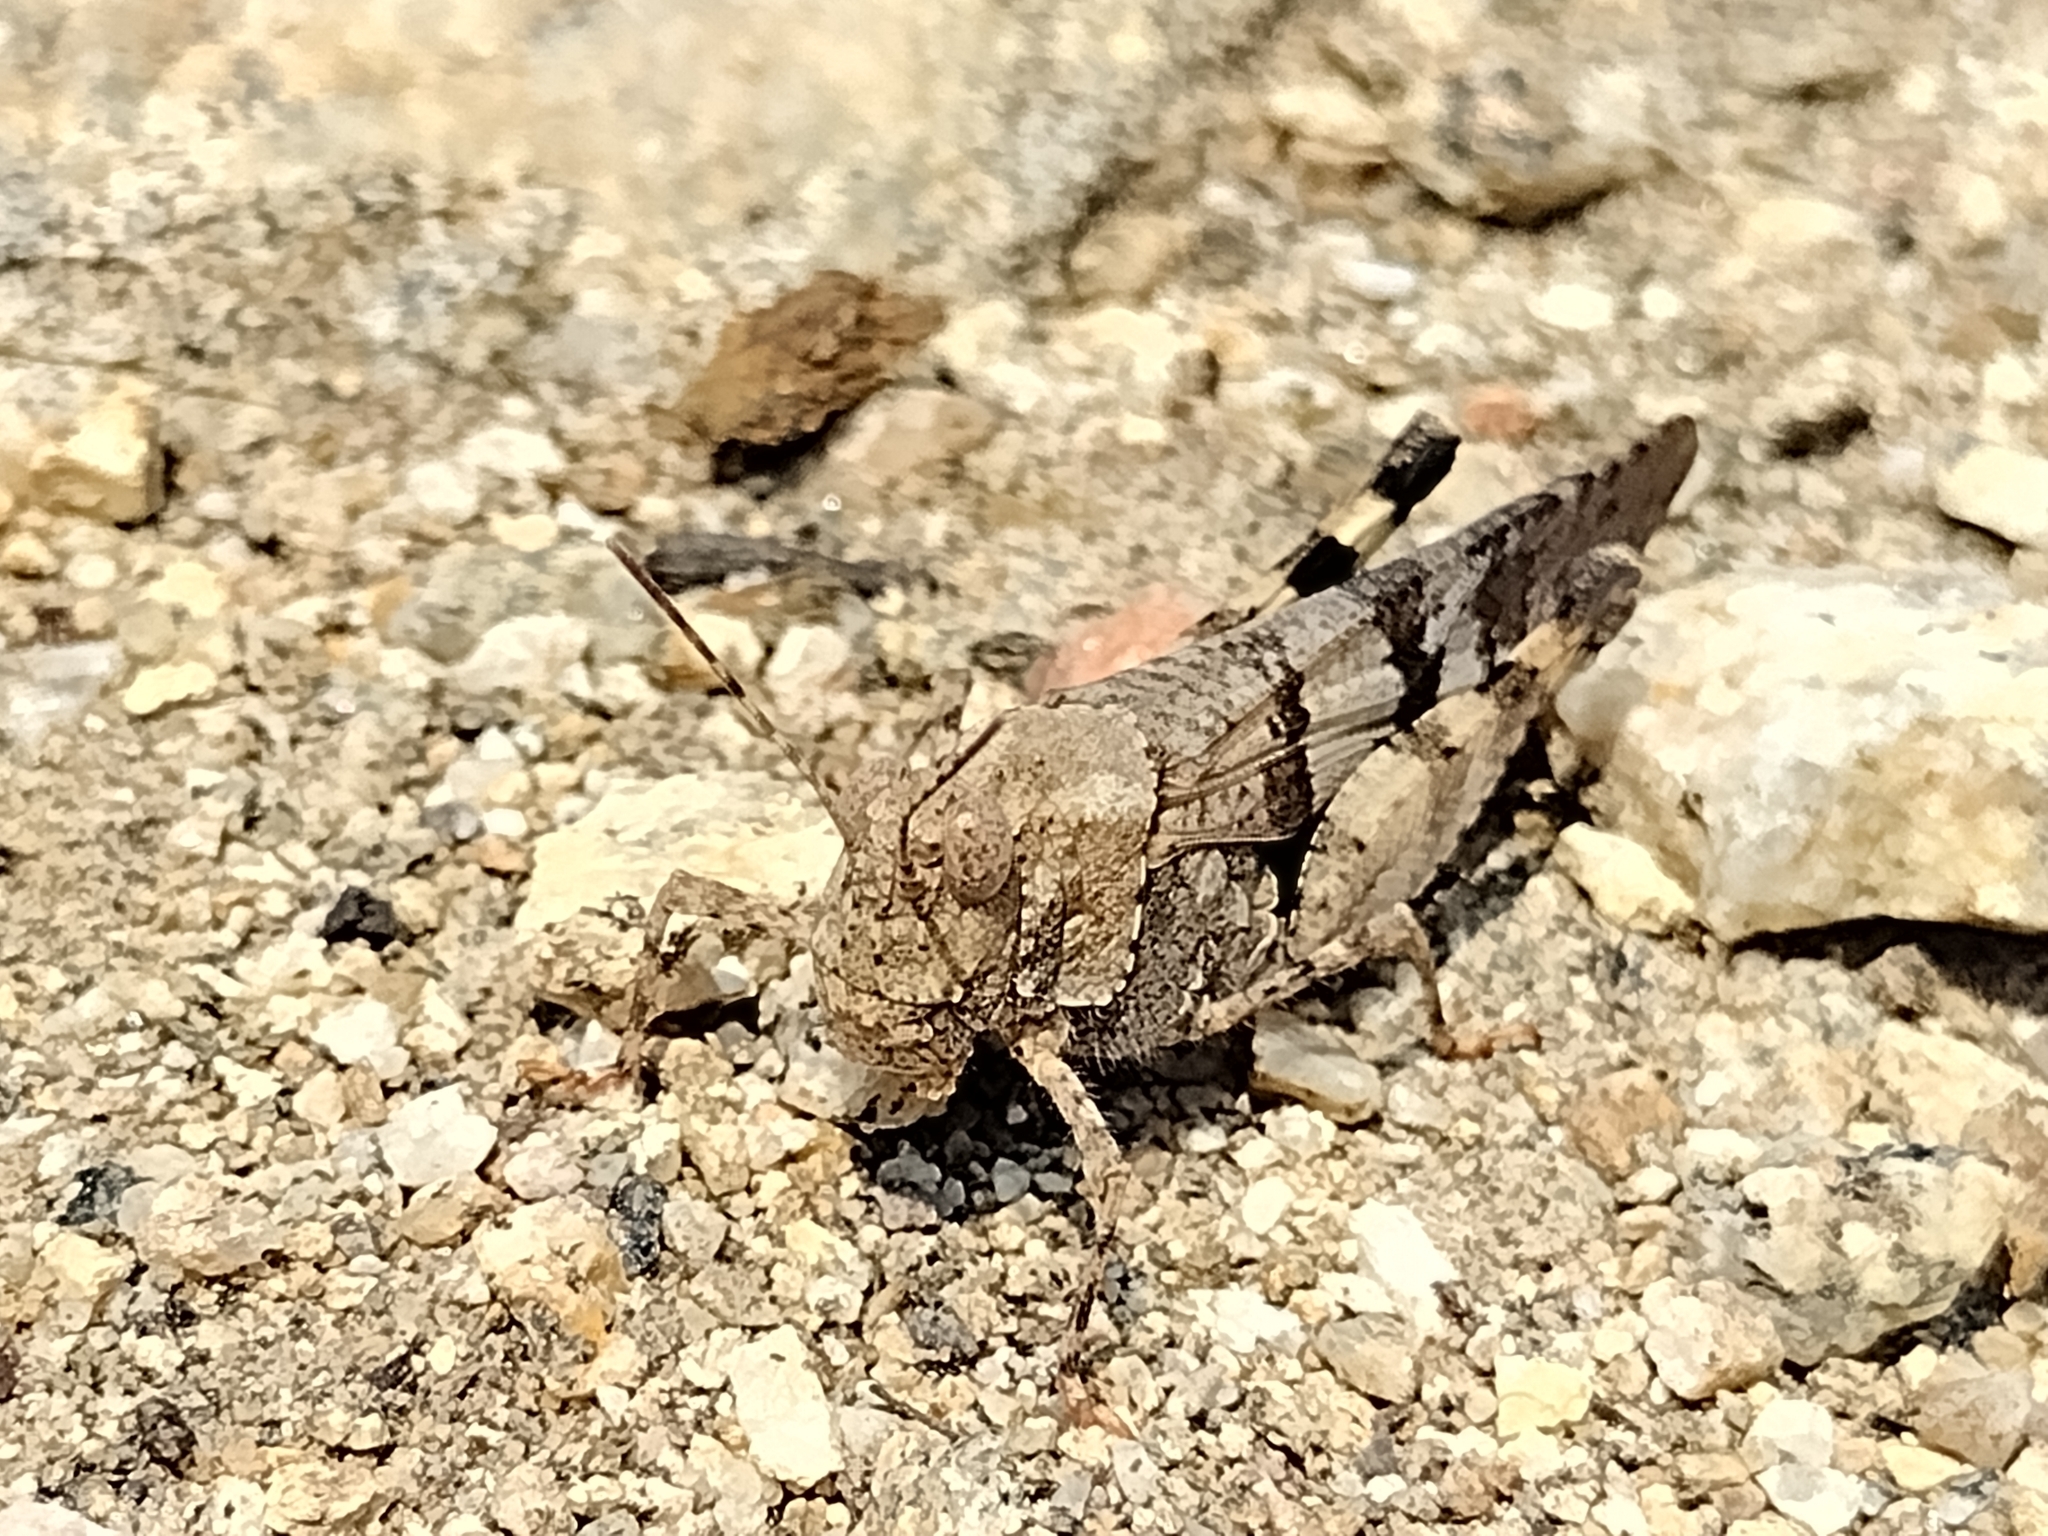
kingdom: Animalia
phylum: Arthropoda
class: Insecta
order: Orthoptera
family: Acrididae
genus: Trimerotropis
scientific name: Trimerotropis fontana
